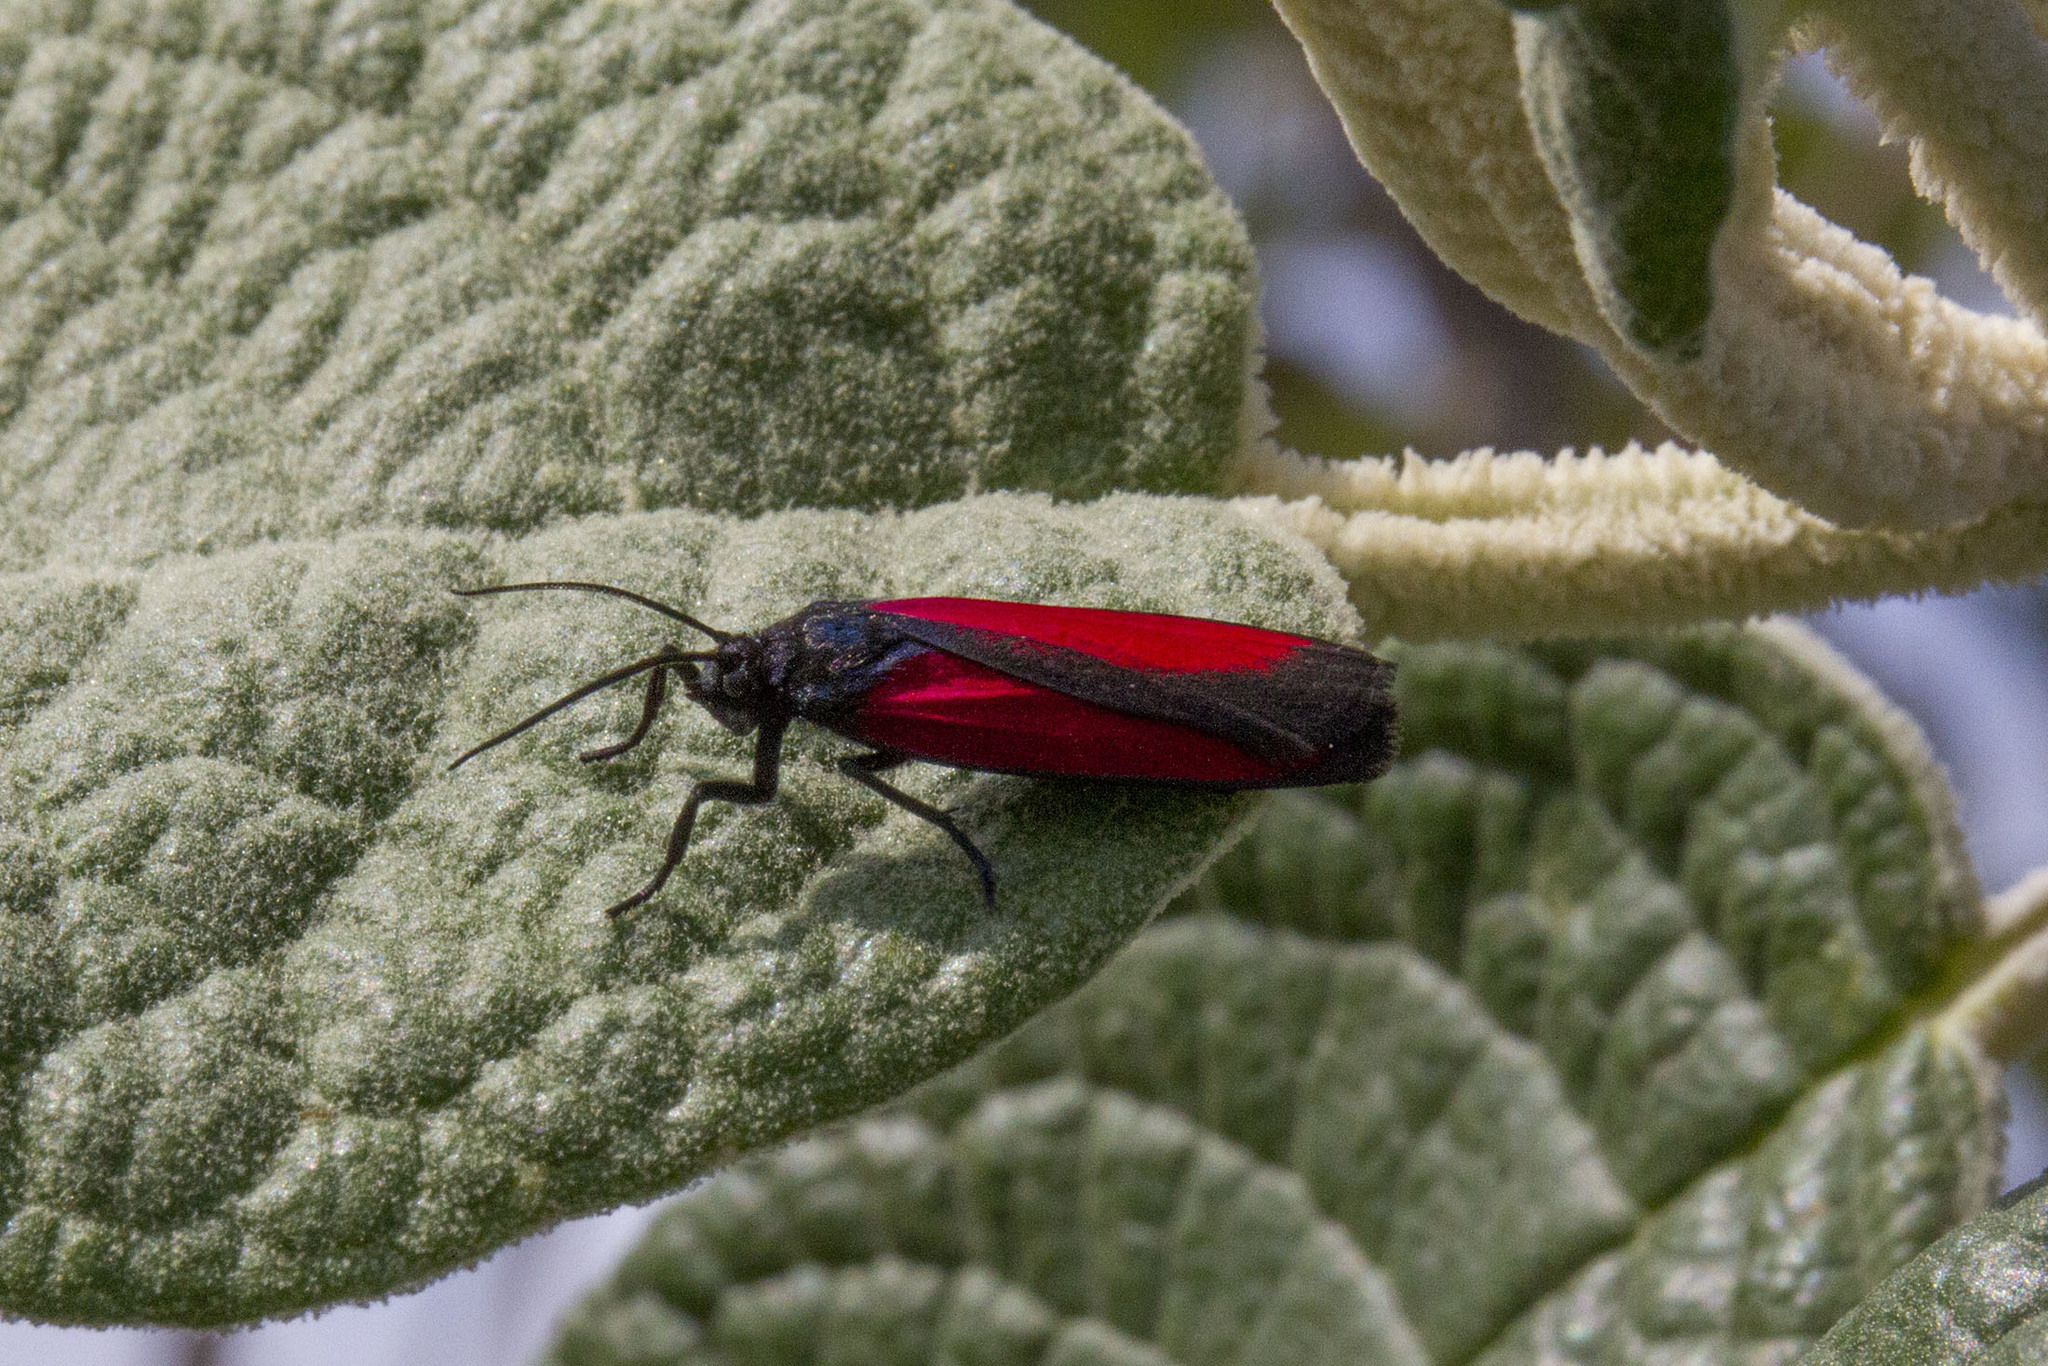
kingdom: Animalia
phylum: Arthropoda
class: Insecta
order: Lepidoptera
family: Erebidae
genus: Ptychoglene
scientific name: Ptychoglene sanguineola
